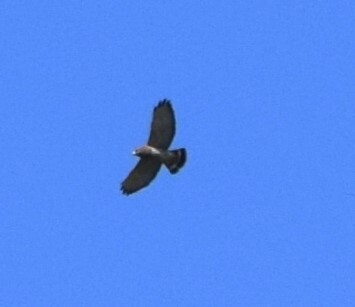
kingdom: Animalia
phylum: Chordata
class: Aves
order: Accipitriformes
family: Accipitridae
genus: Buteo
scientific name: Buteo platypterus
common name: Broad-winged hawk
